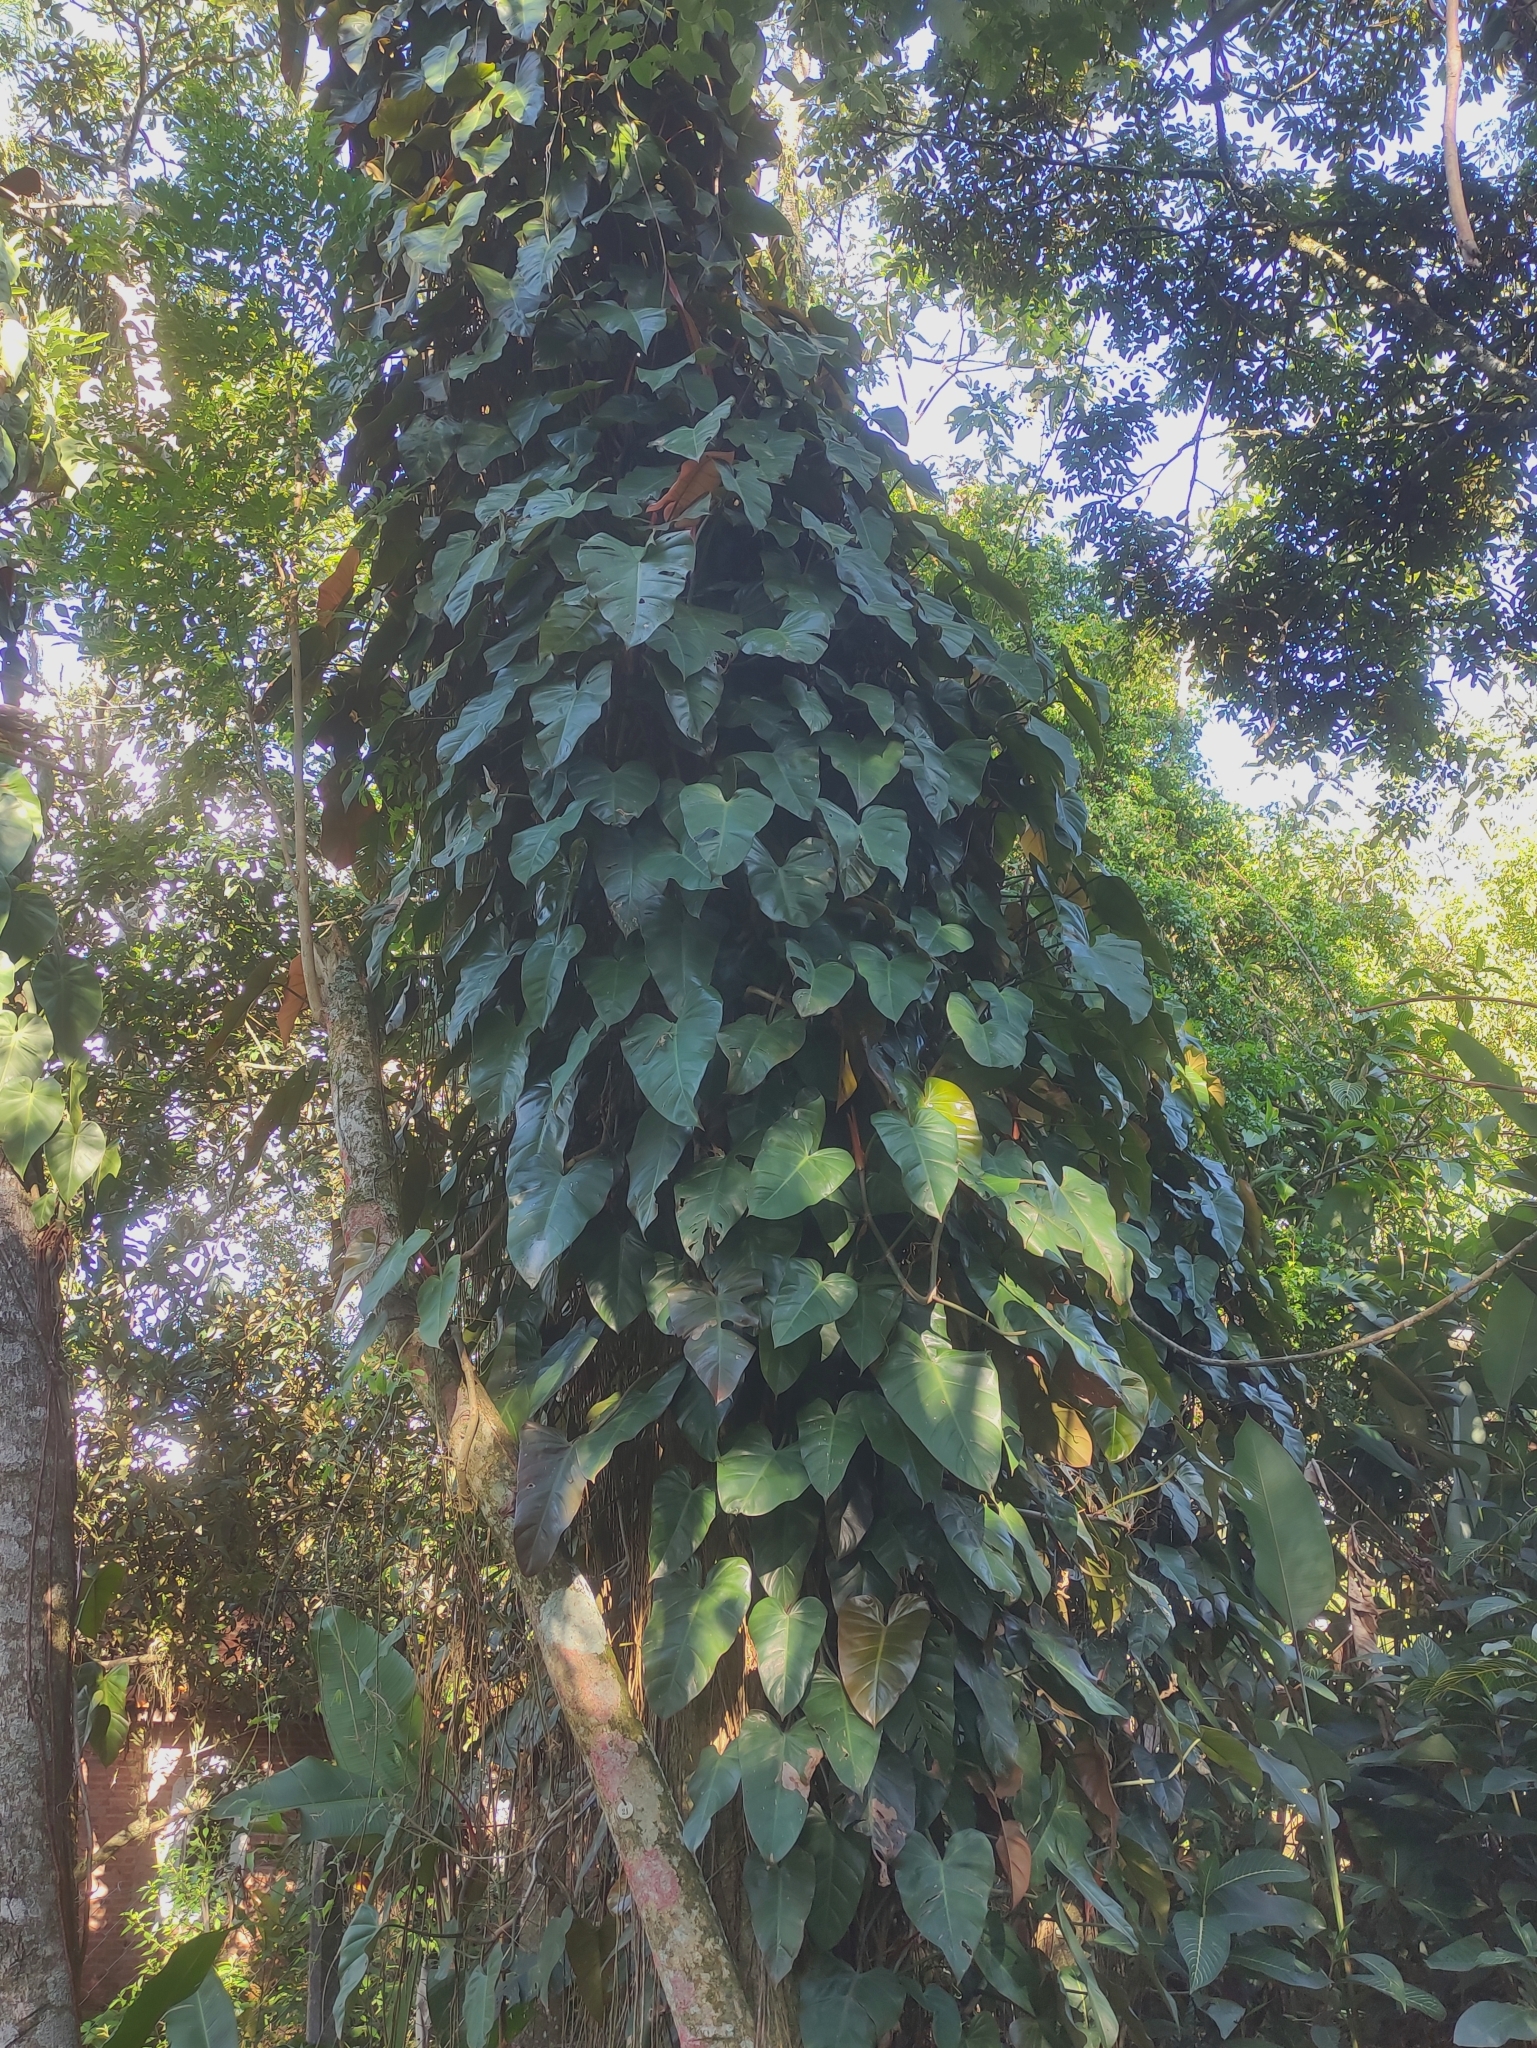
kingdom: Plantae
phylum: Tracheophyta
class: Liliopsida
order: Alismatales
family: Araceae
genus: Philodendron
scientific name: Philodendron erubescens
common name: Philodendron
